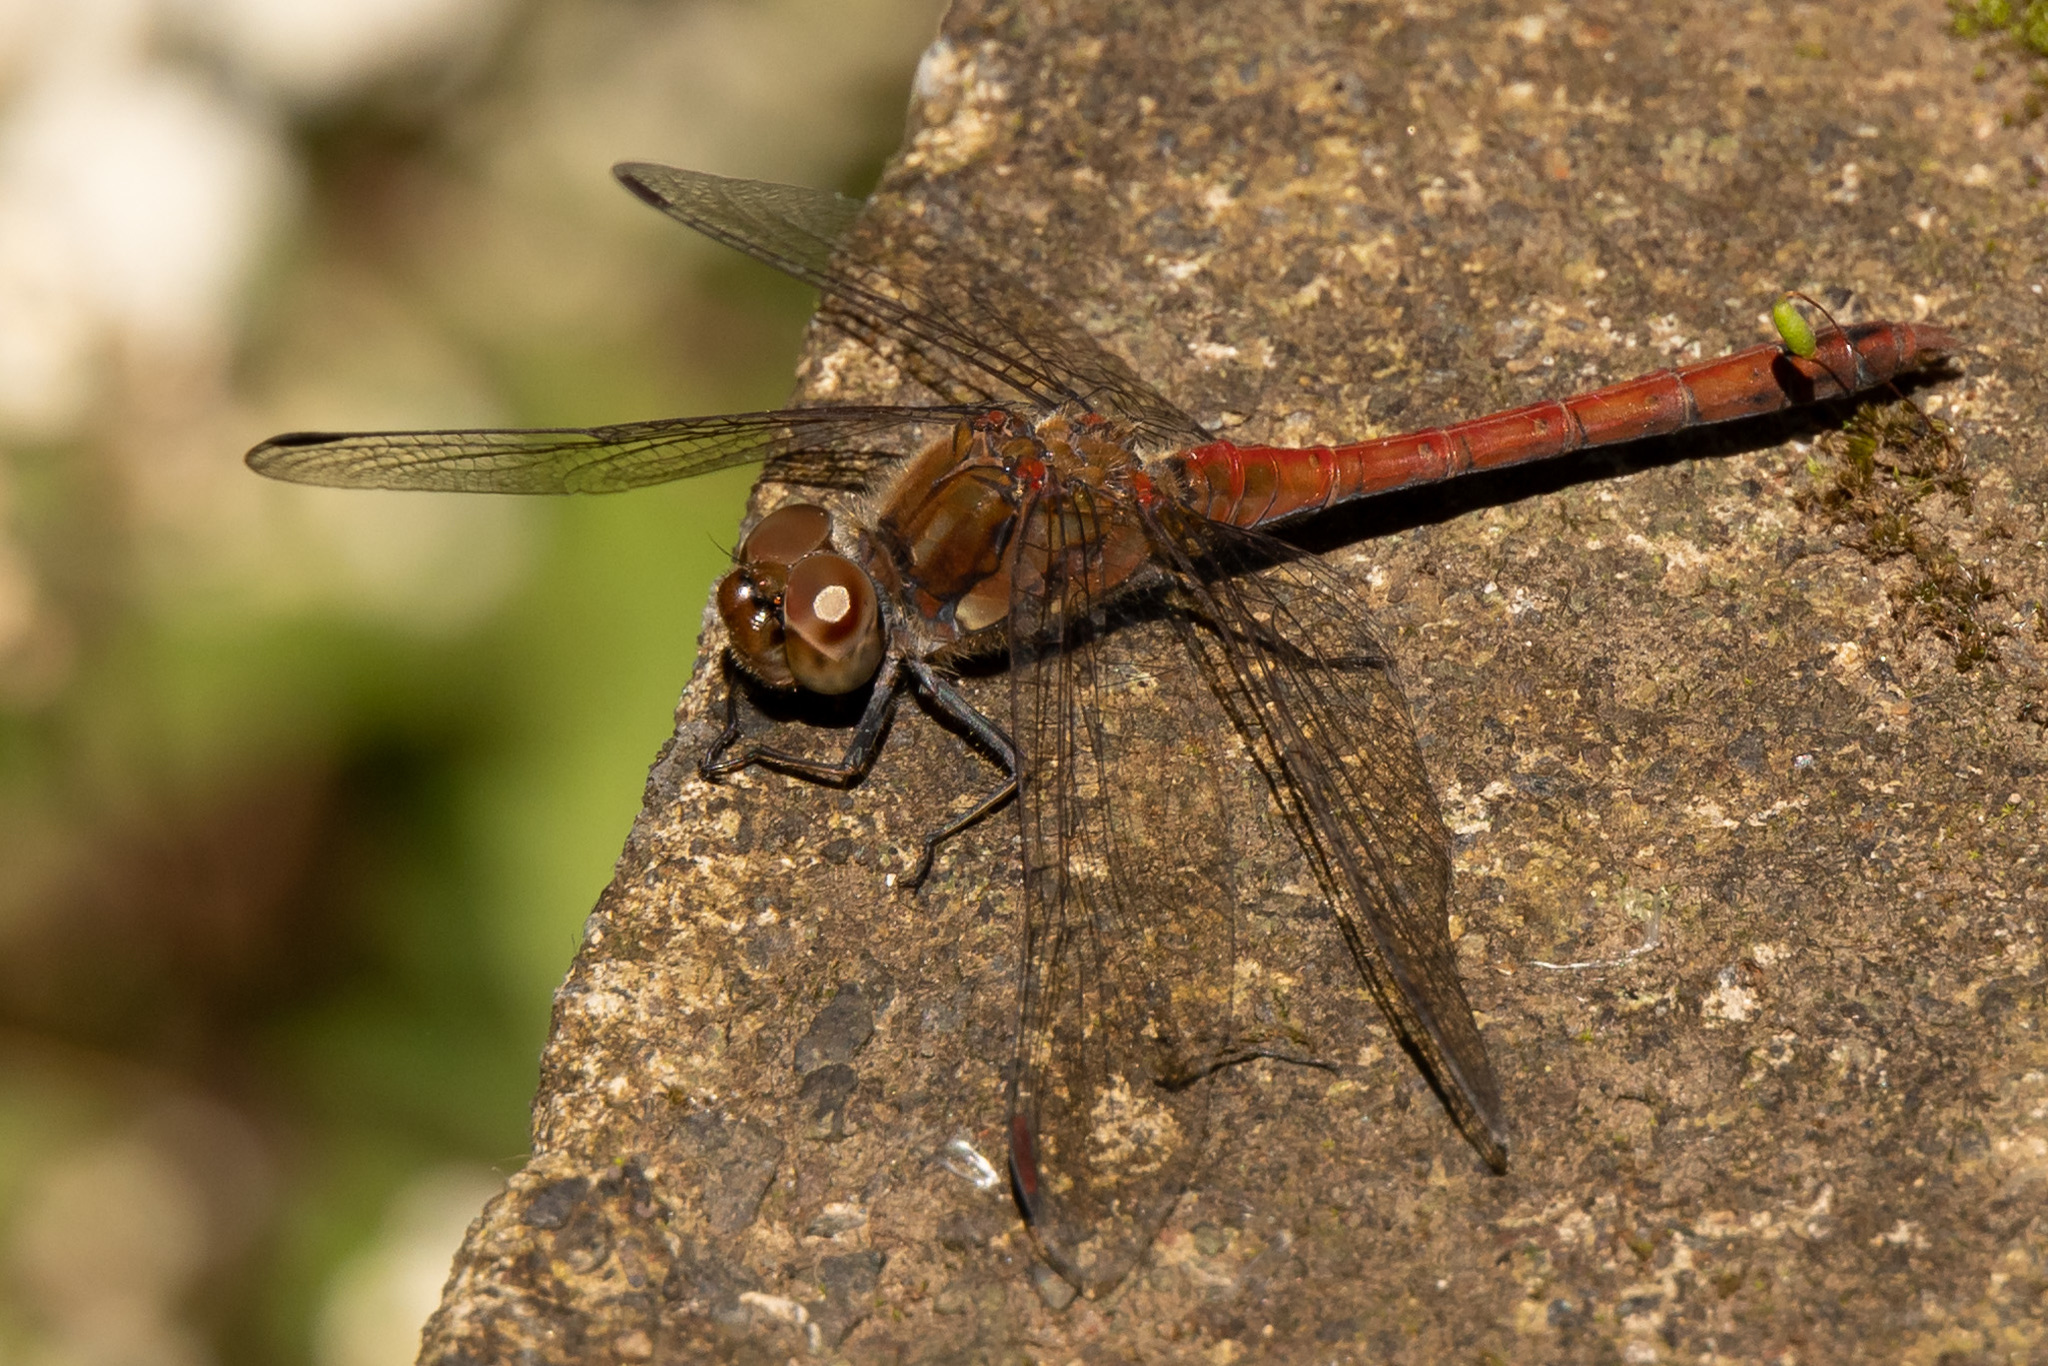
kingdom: Animalia
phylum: Arthropoda
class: Insecta
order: Odonata
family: Libellulidae
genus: Sympetrum
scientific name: Sympetrum nigrifemur
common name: Island darter
